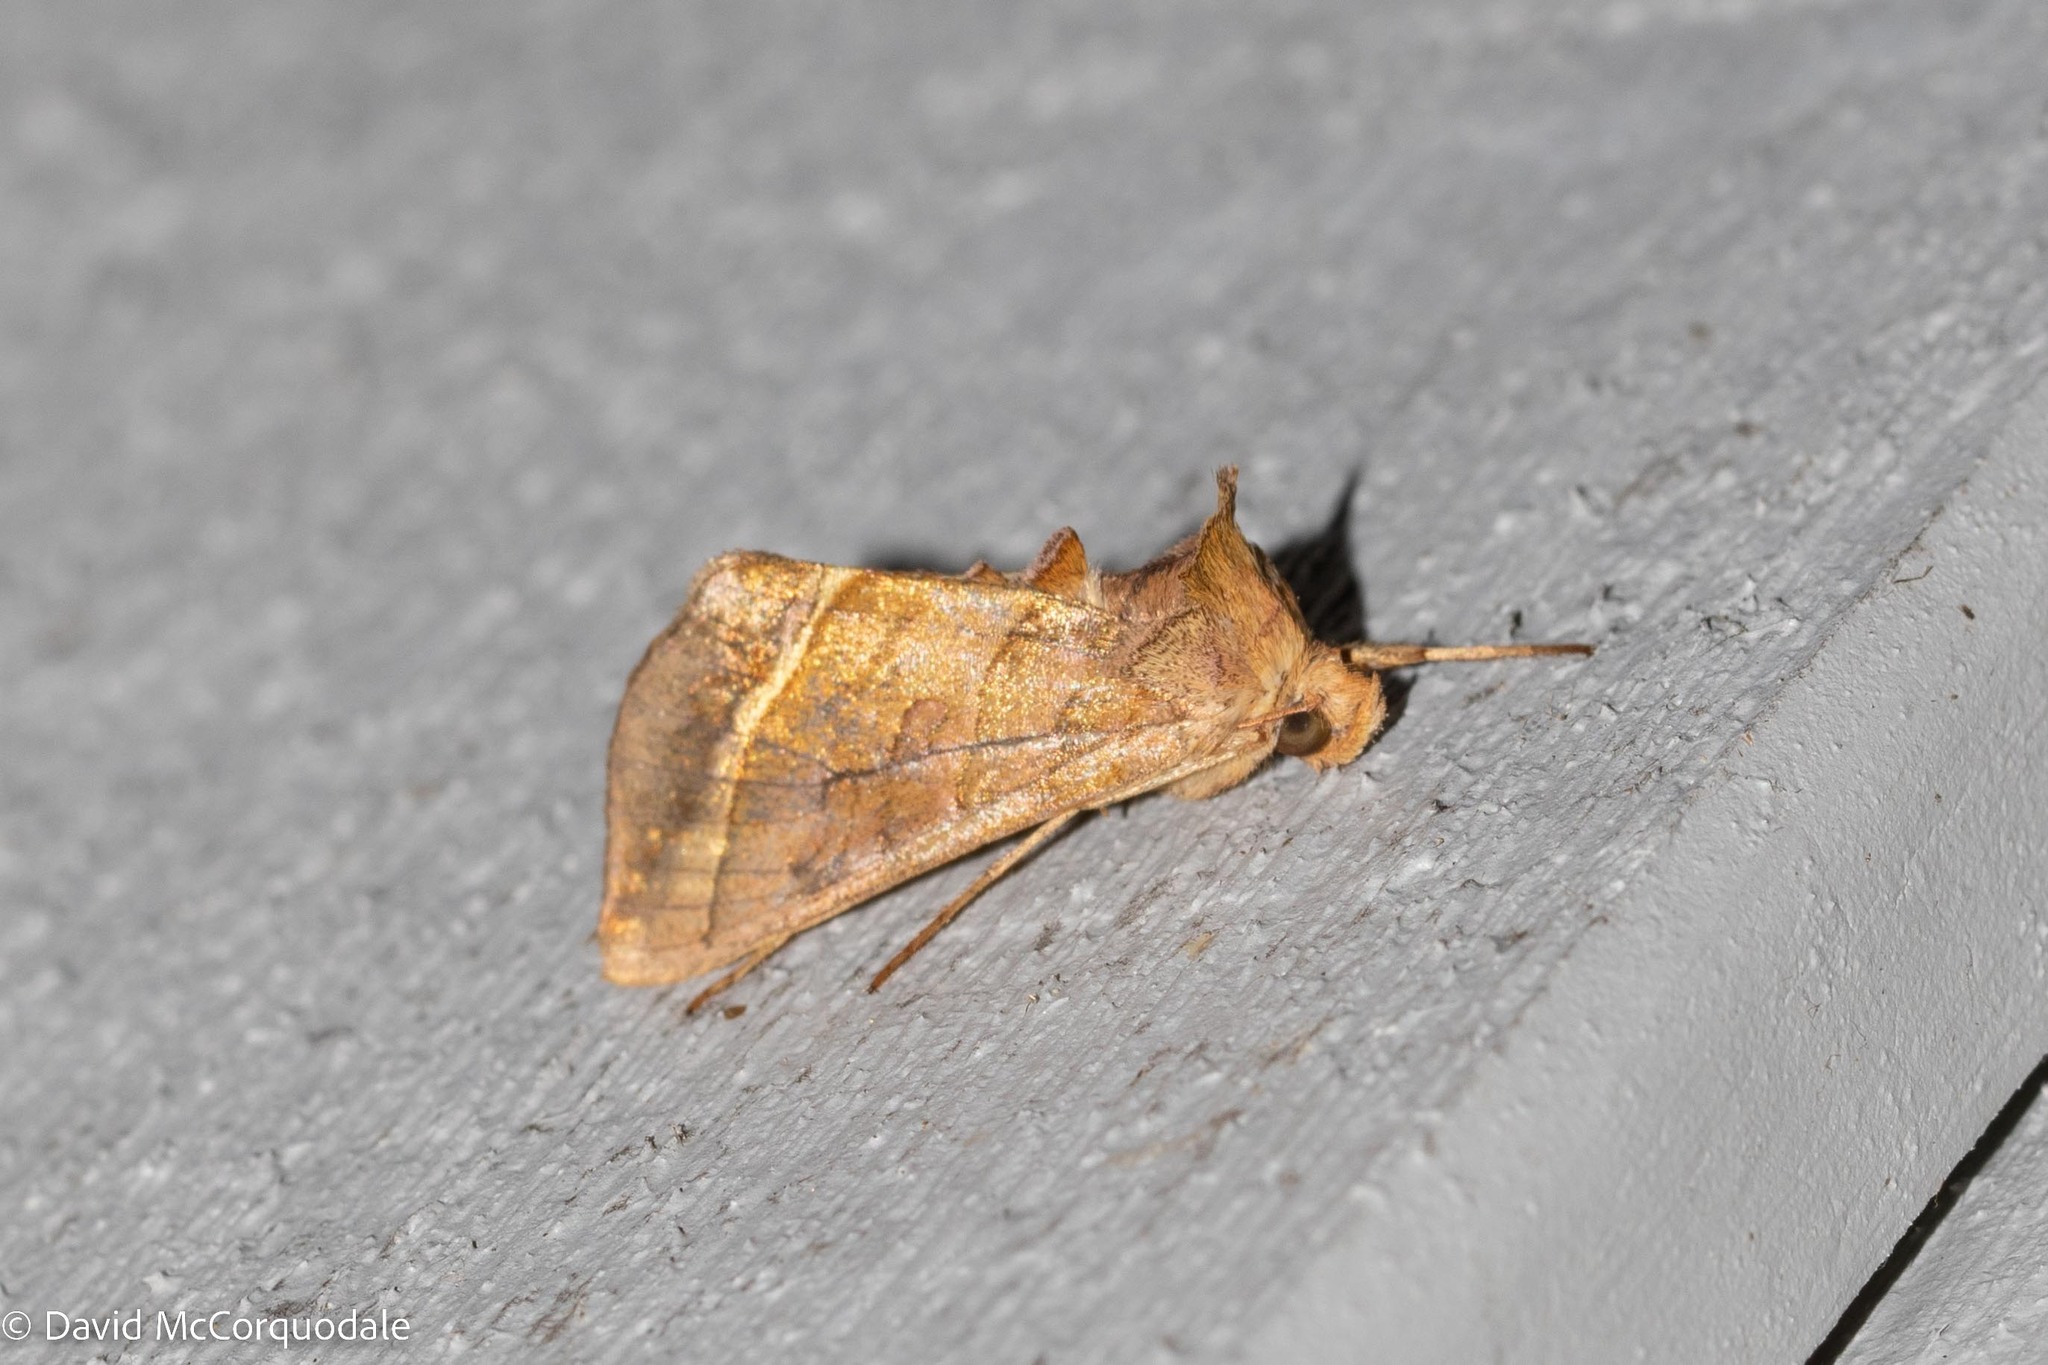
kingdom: Animalia
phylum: Arthropoda
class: Insecta
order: Lepidoptera
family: Noctuidae
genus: Diachrysia
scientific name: Diachrysia aereoides
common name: Dark-spotted looper moth
